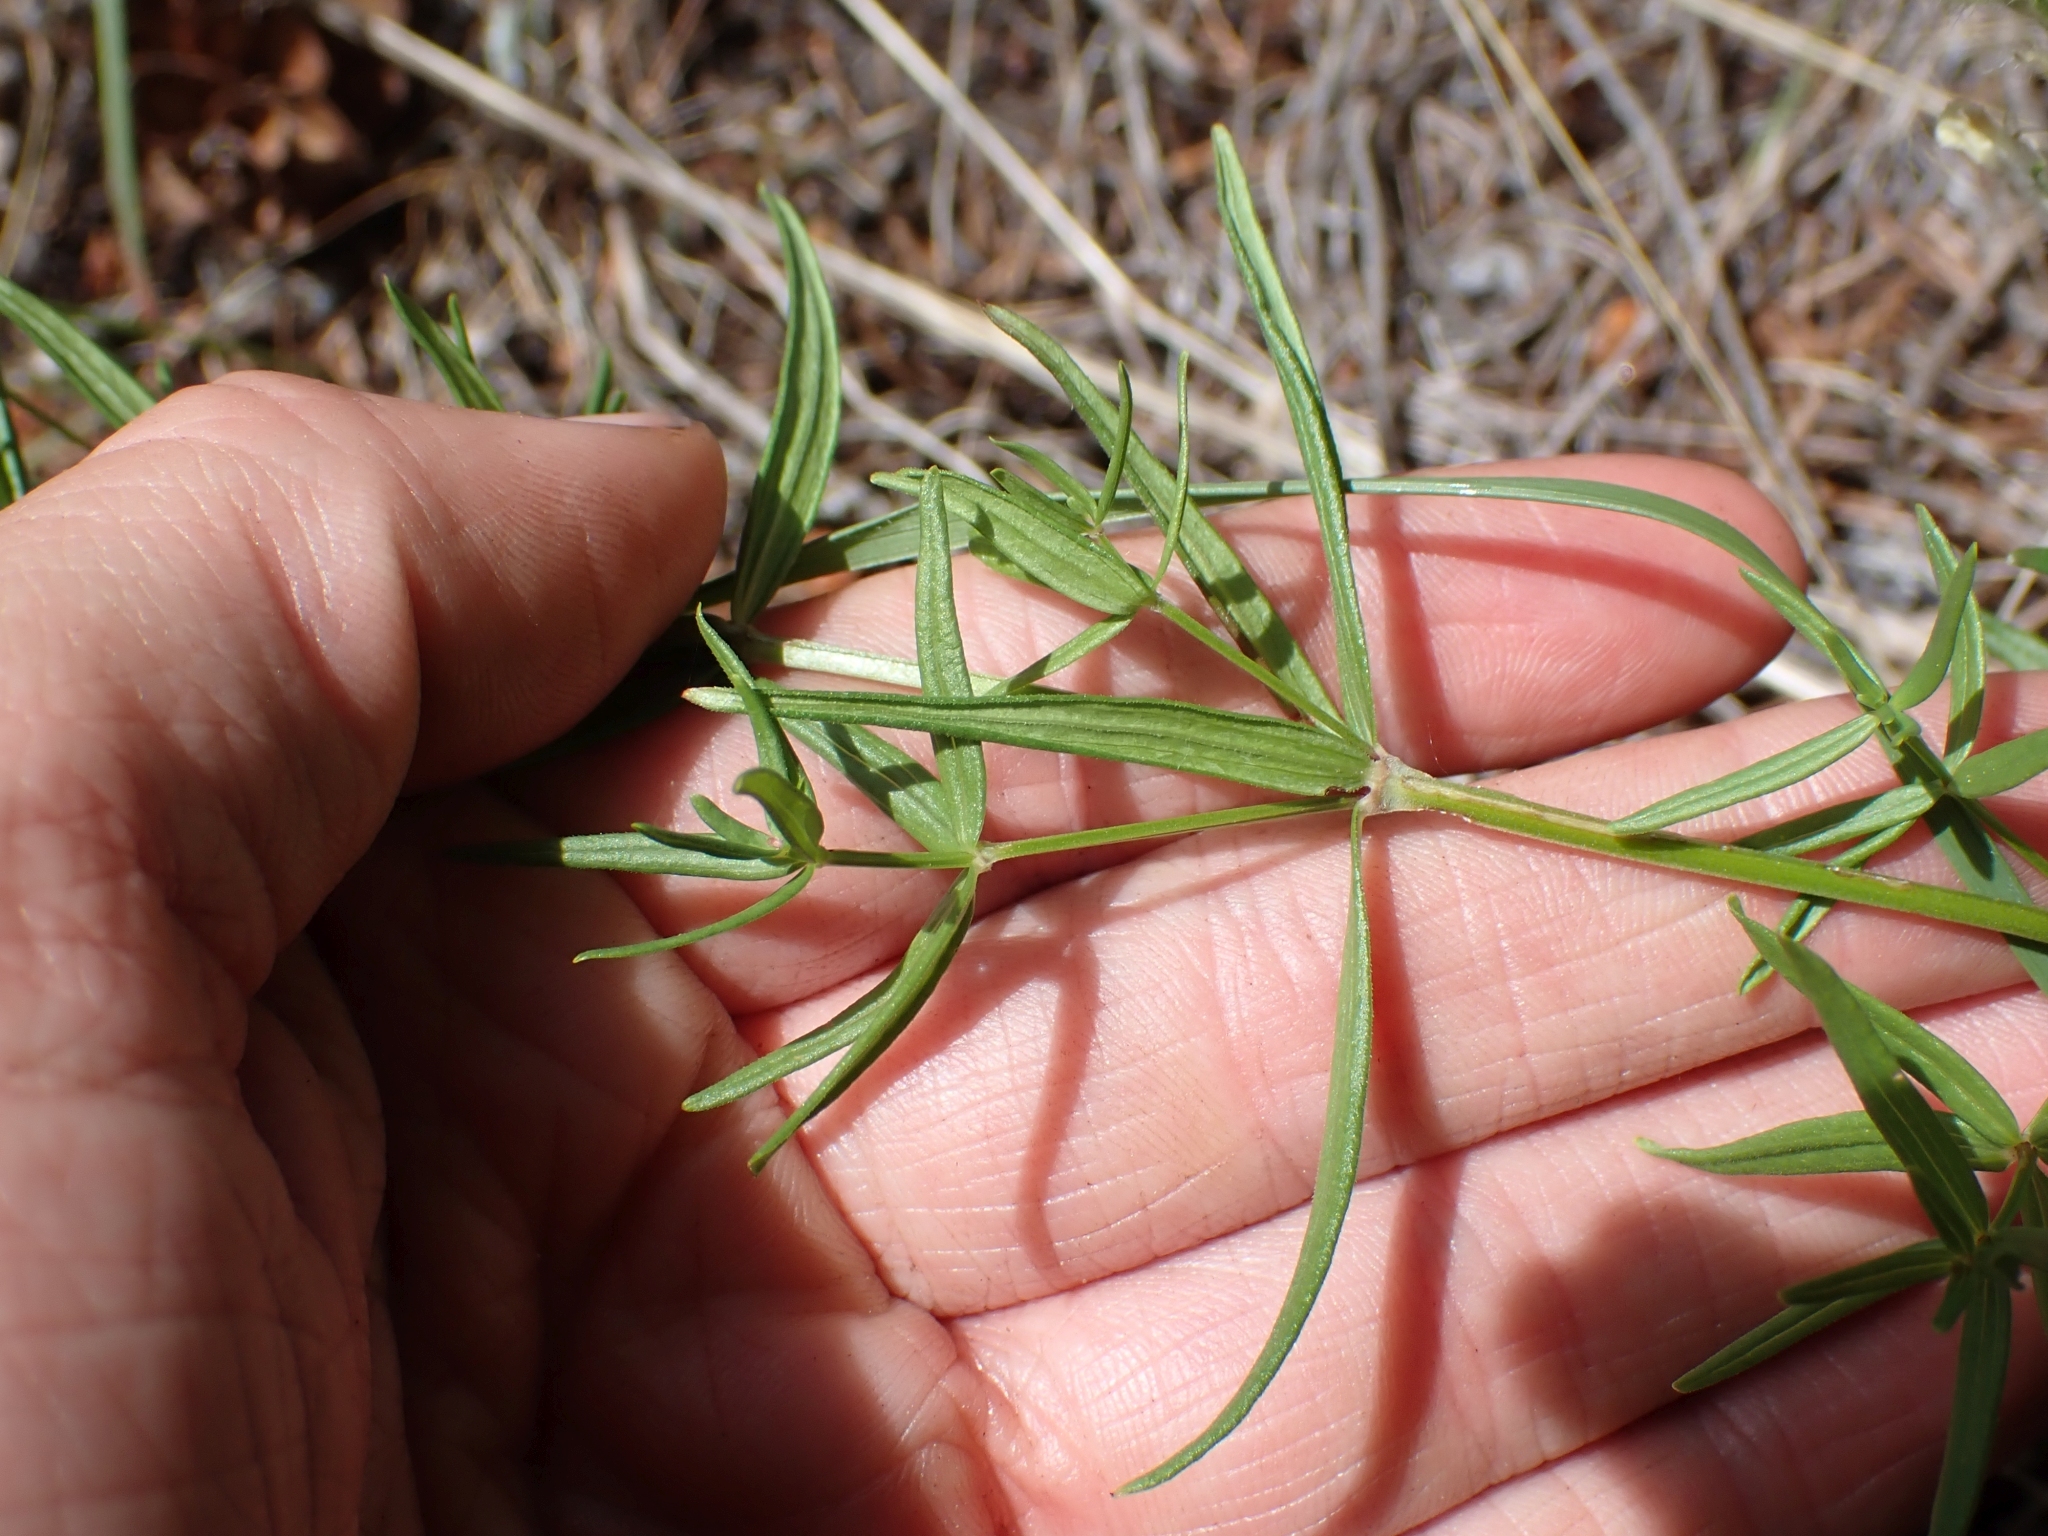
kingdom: Plantae
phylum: Tracheophyta
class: Magnoliopsida
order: Gentianales
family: Rubiaceae
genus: Galium
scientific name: Galium boreale
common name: Northern bedstraw
